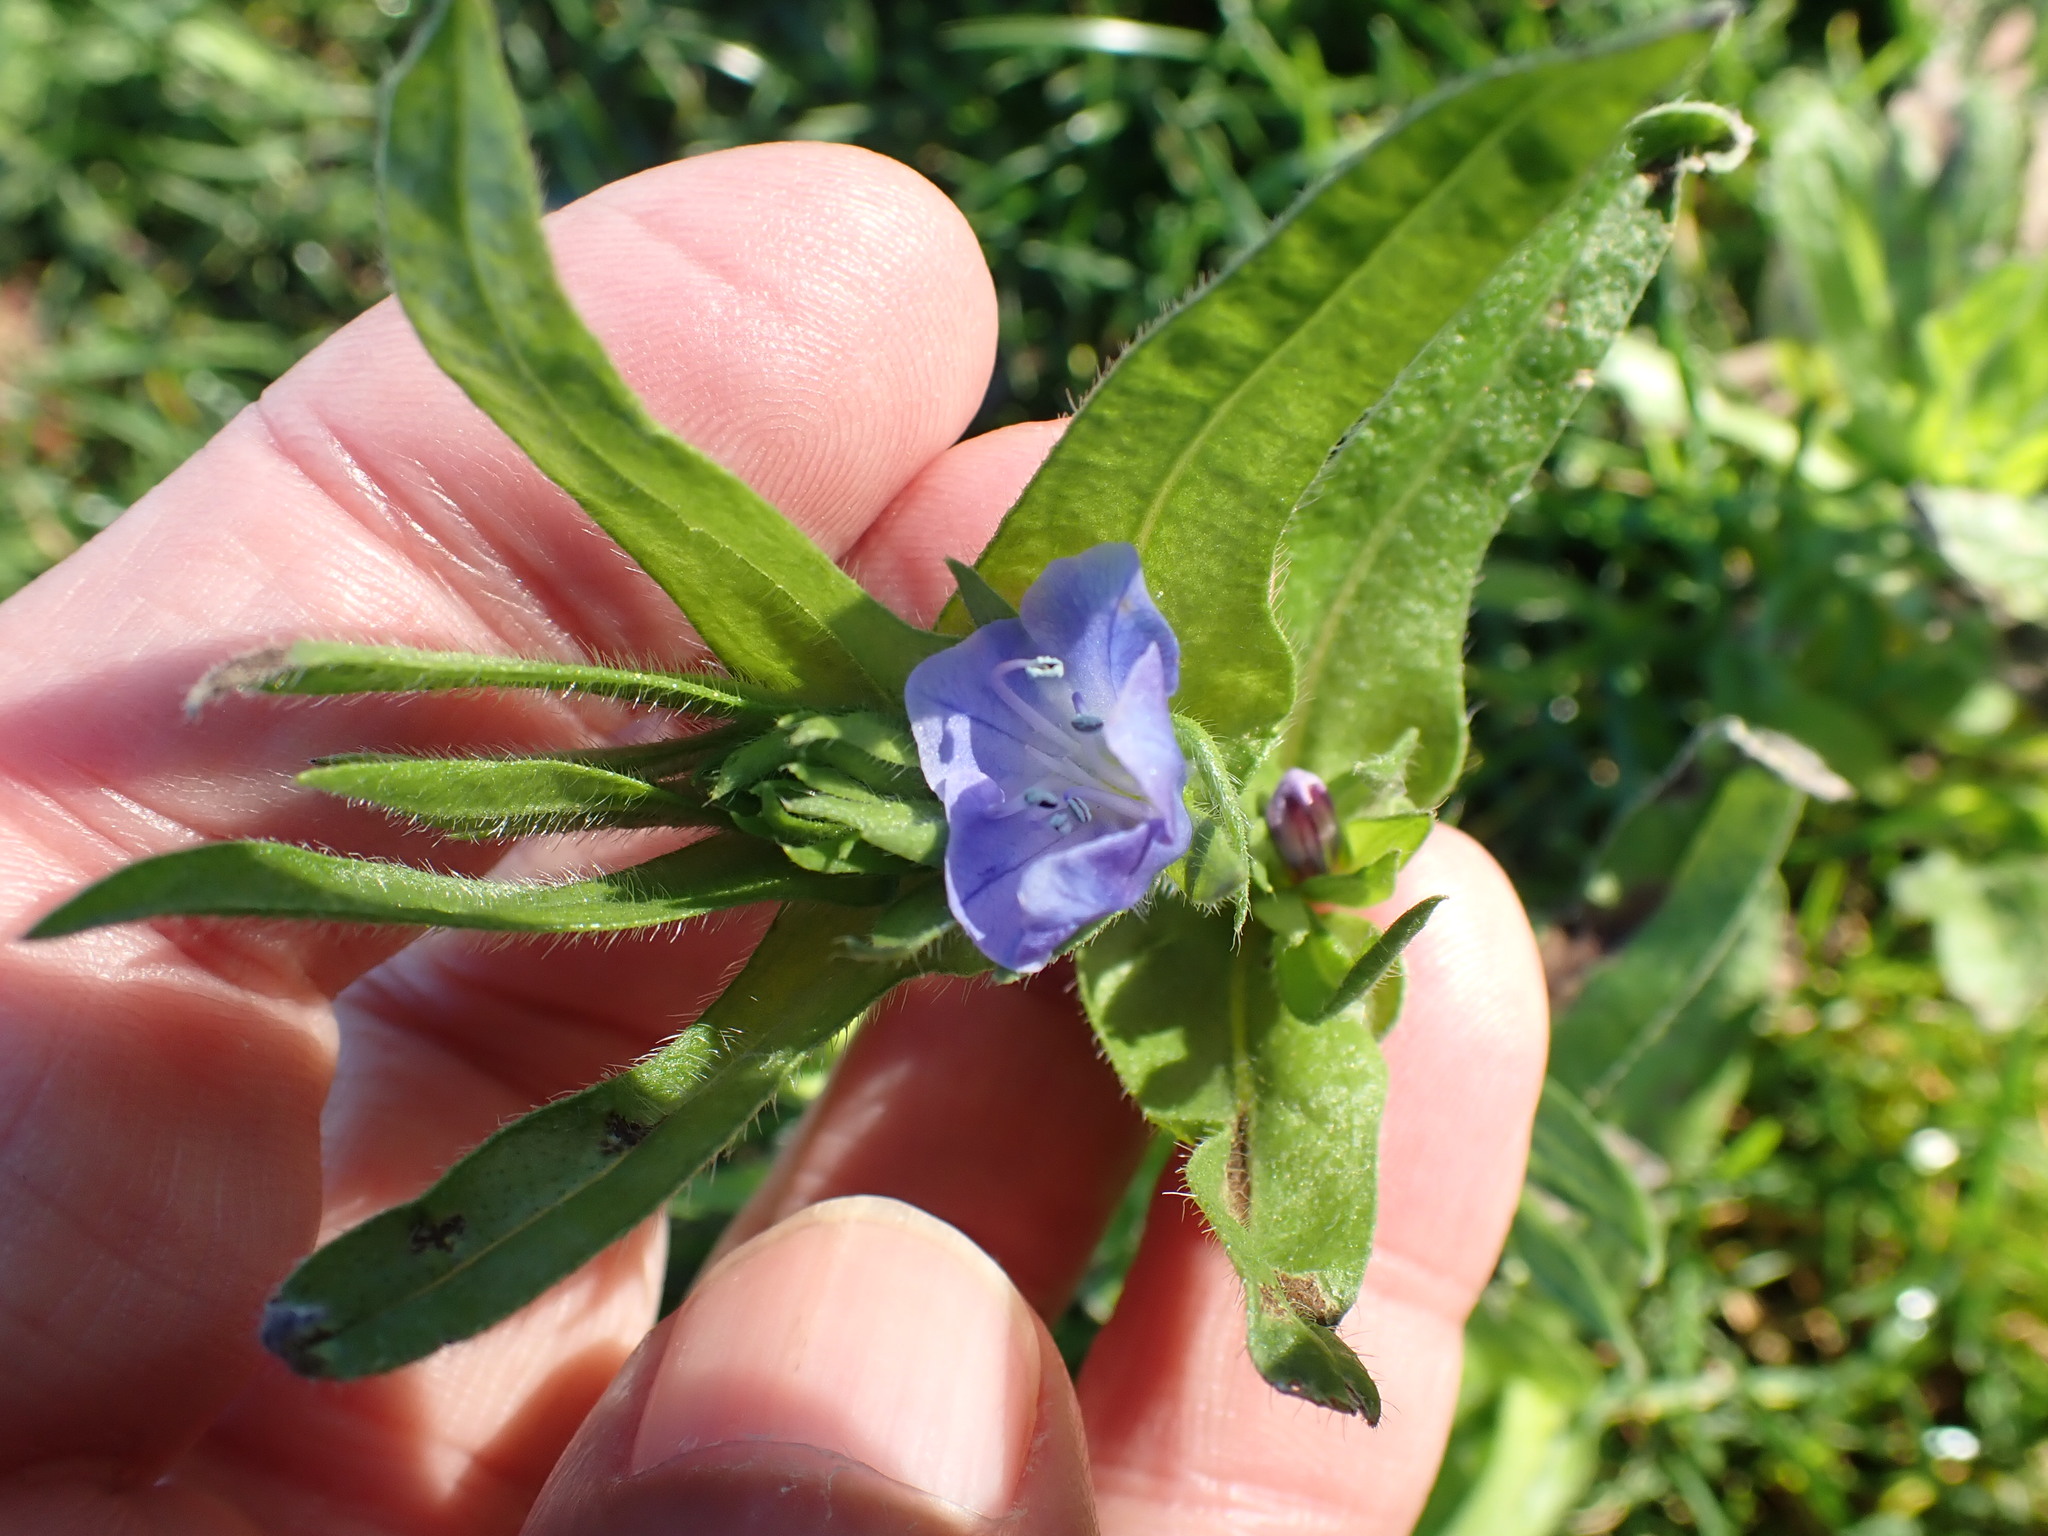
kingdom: Plantae
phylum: Tracheophyta
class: Magnoliopsida
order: Boraginales
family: Boraginaceae
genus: Echium
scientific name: Echium plantagineum
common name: Purple viper's-bugloss
